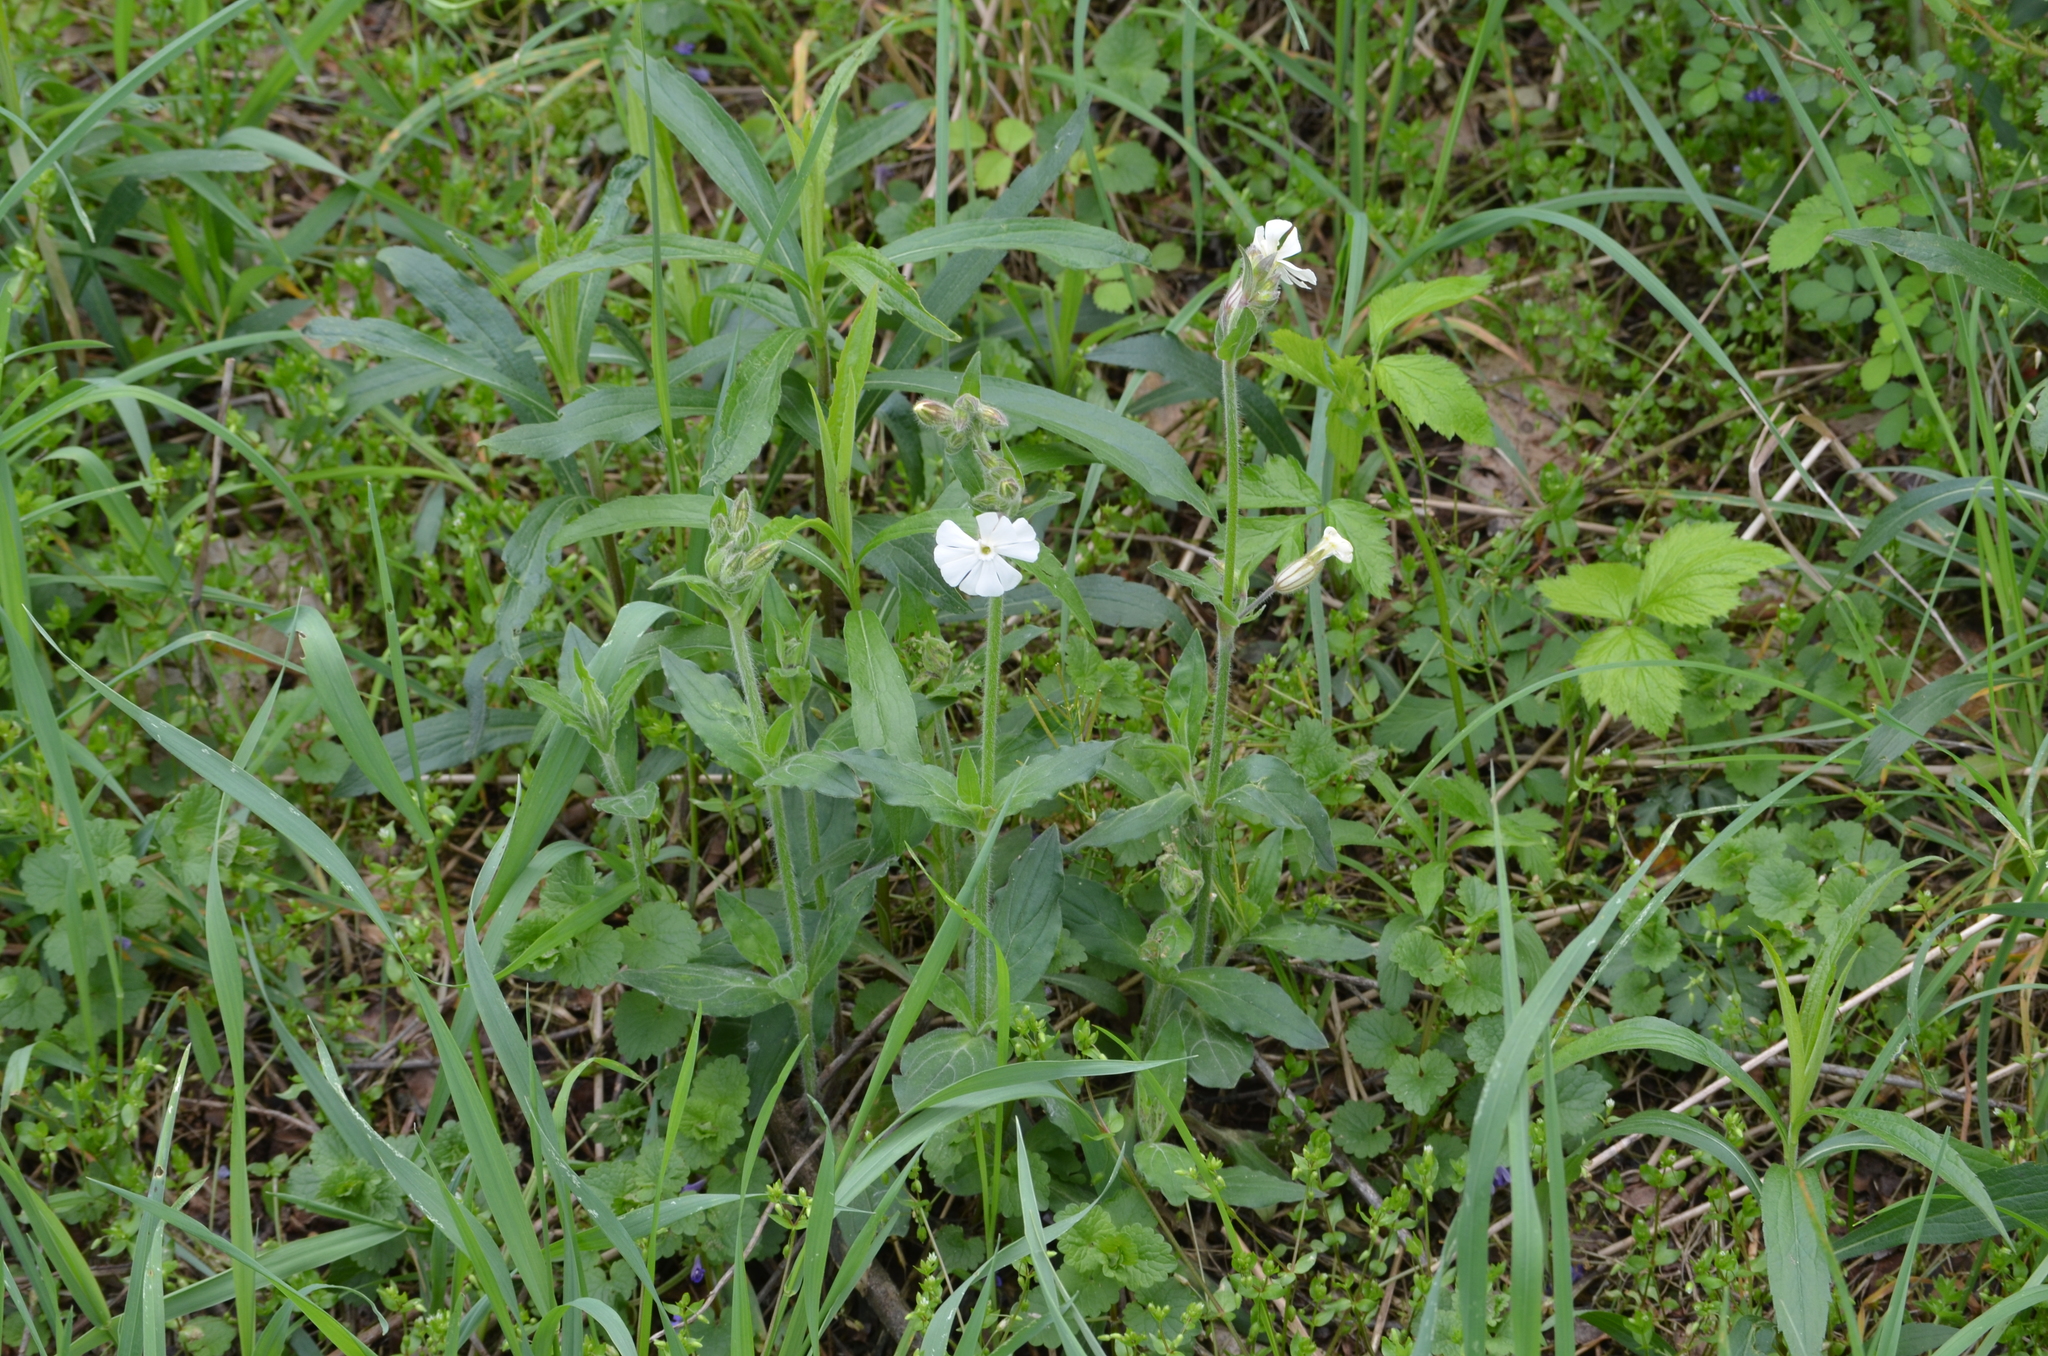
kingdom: Plantae
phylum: Tracheophyta
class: Magnoliopsida
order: Caryophyllales
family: Caryophyllaceae
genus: Silene
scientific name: Silene latifolia
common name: White campion
